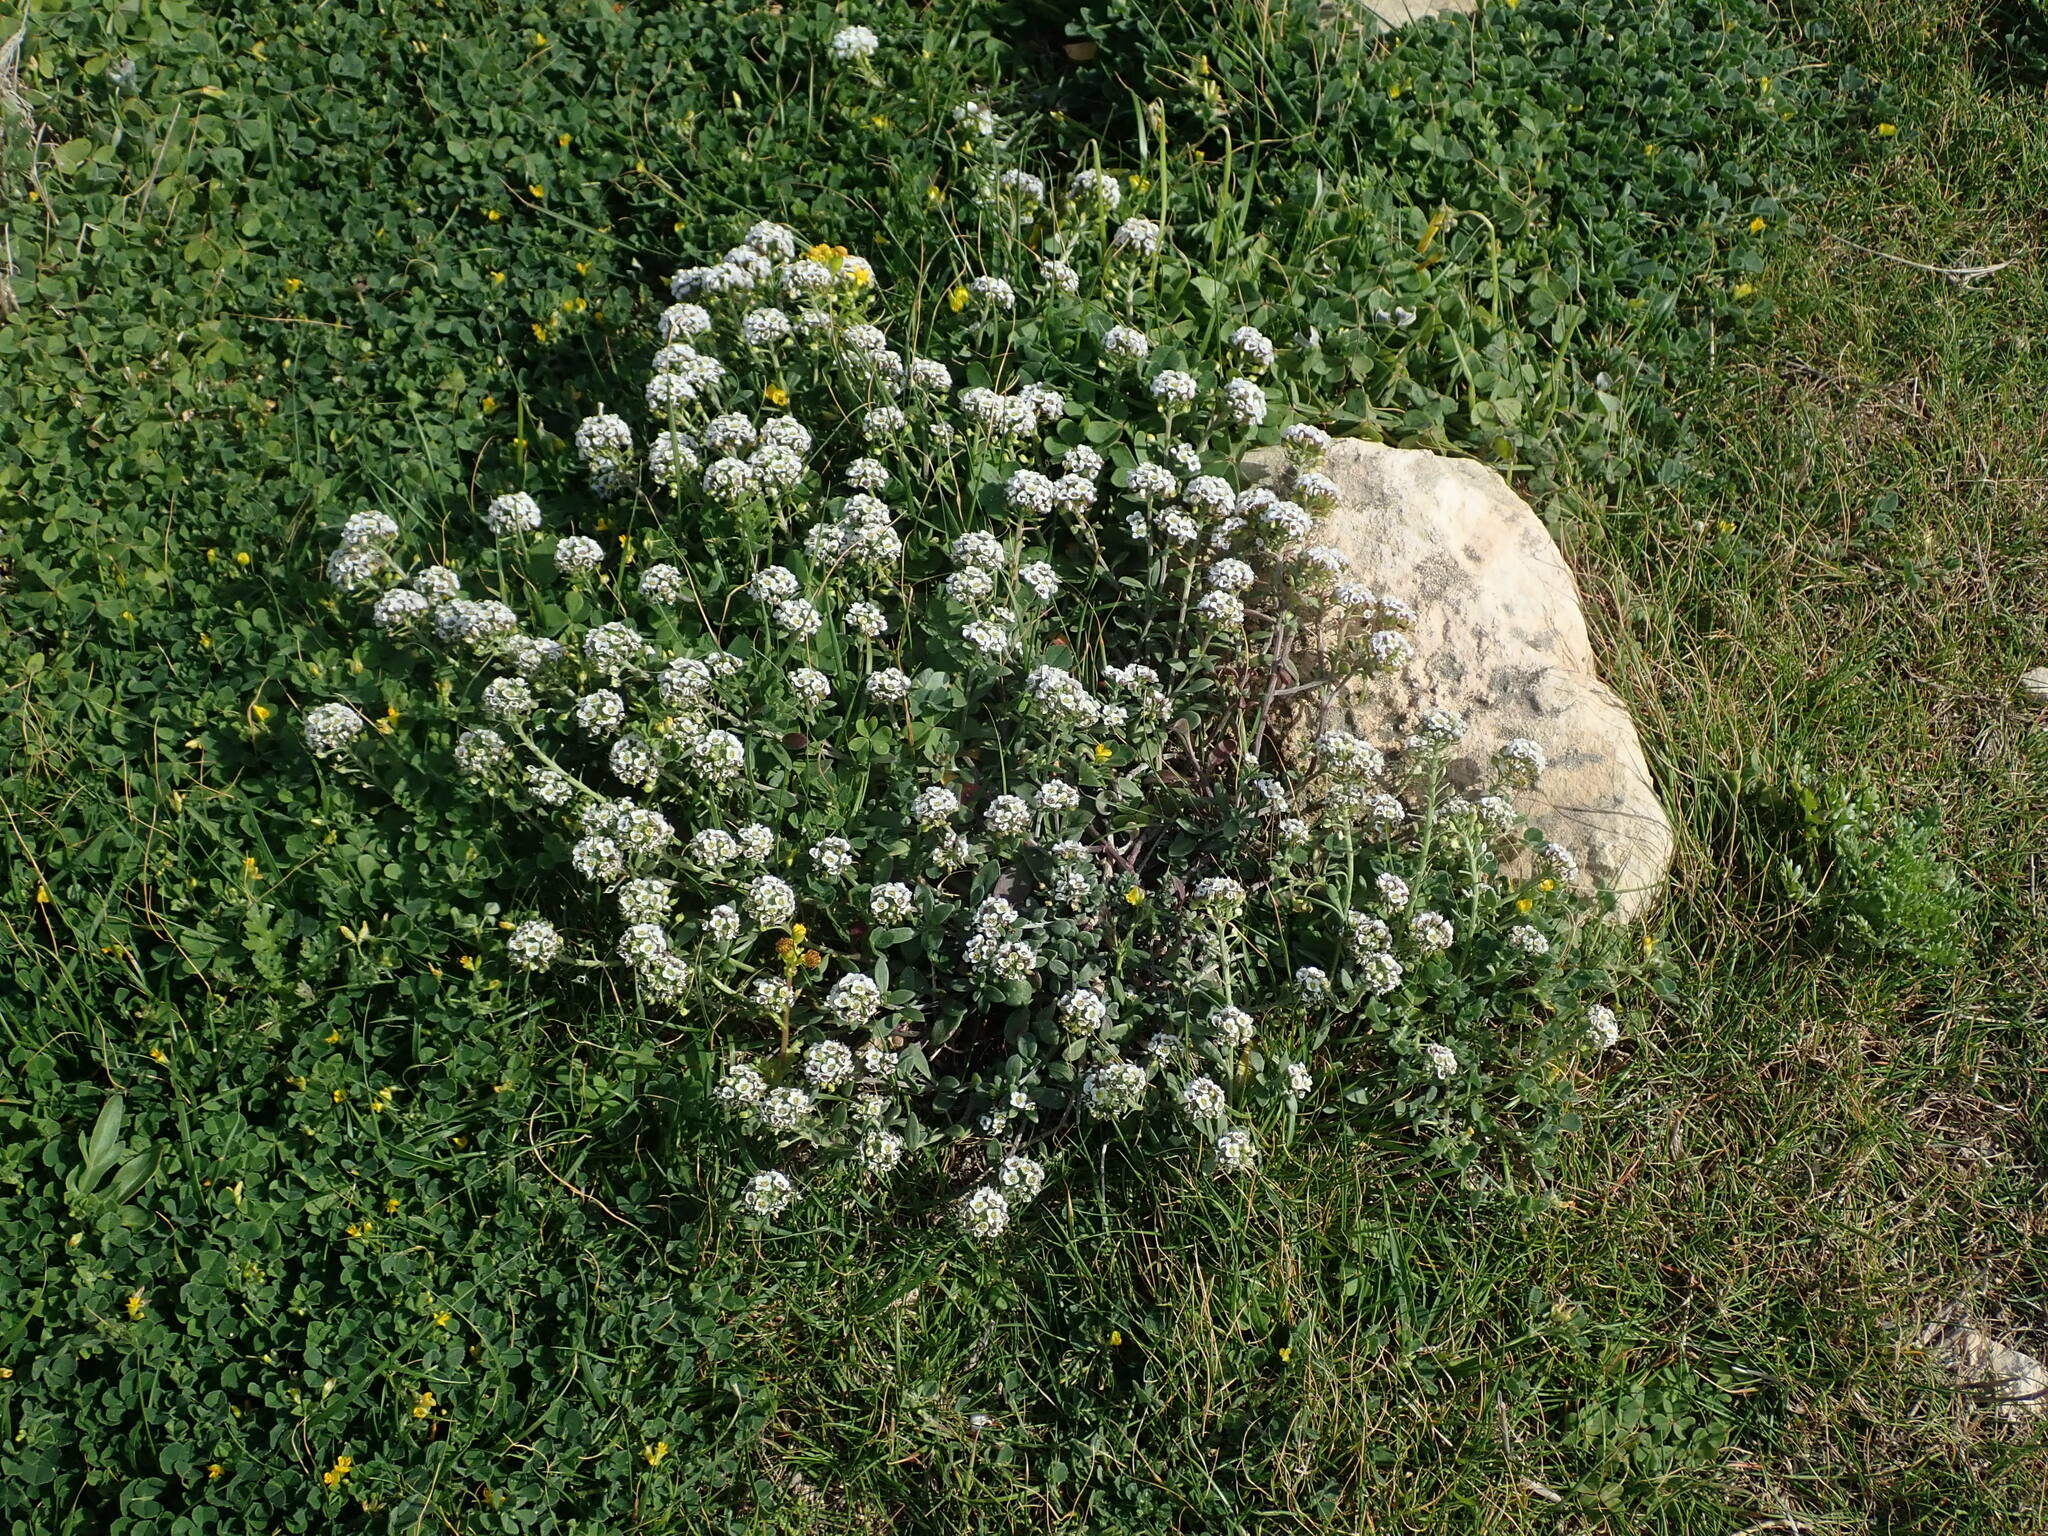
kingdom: Plantae
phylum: Tracheophyta
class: Magnoliopsida
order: Brassicales
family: Brassicaceae
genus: Lobularia
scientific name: Lobularia maritima
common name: Sweet alison
